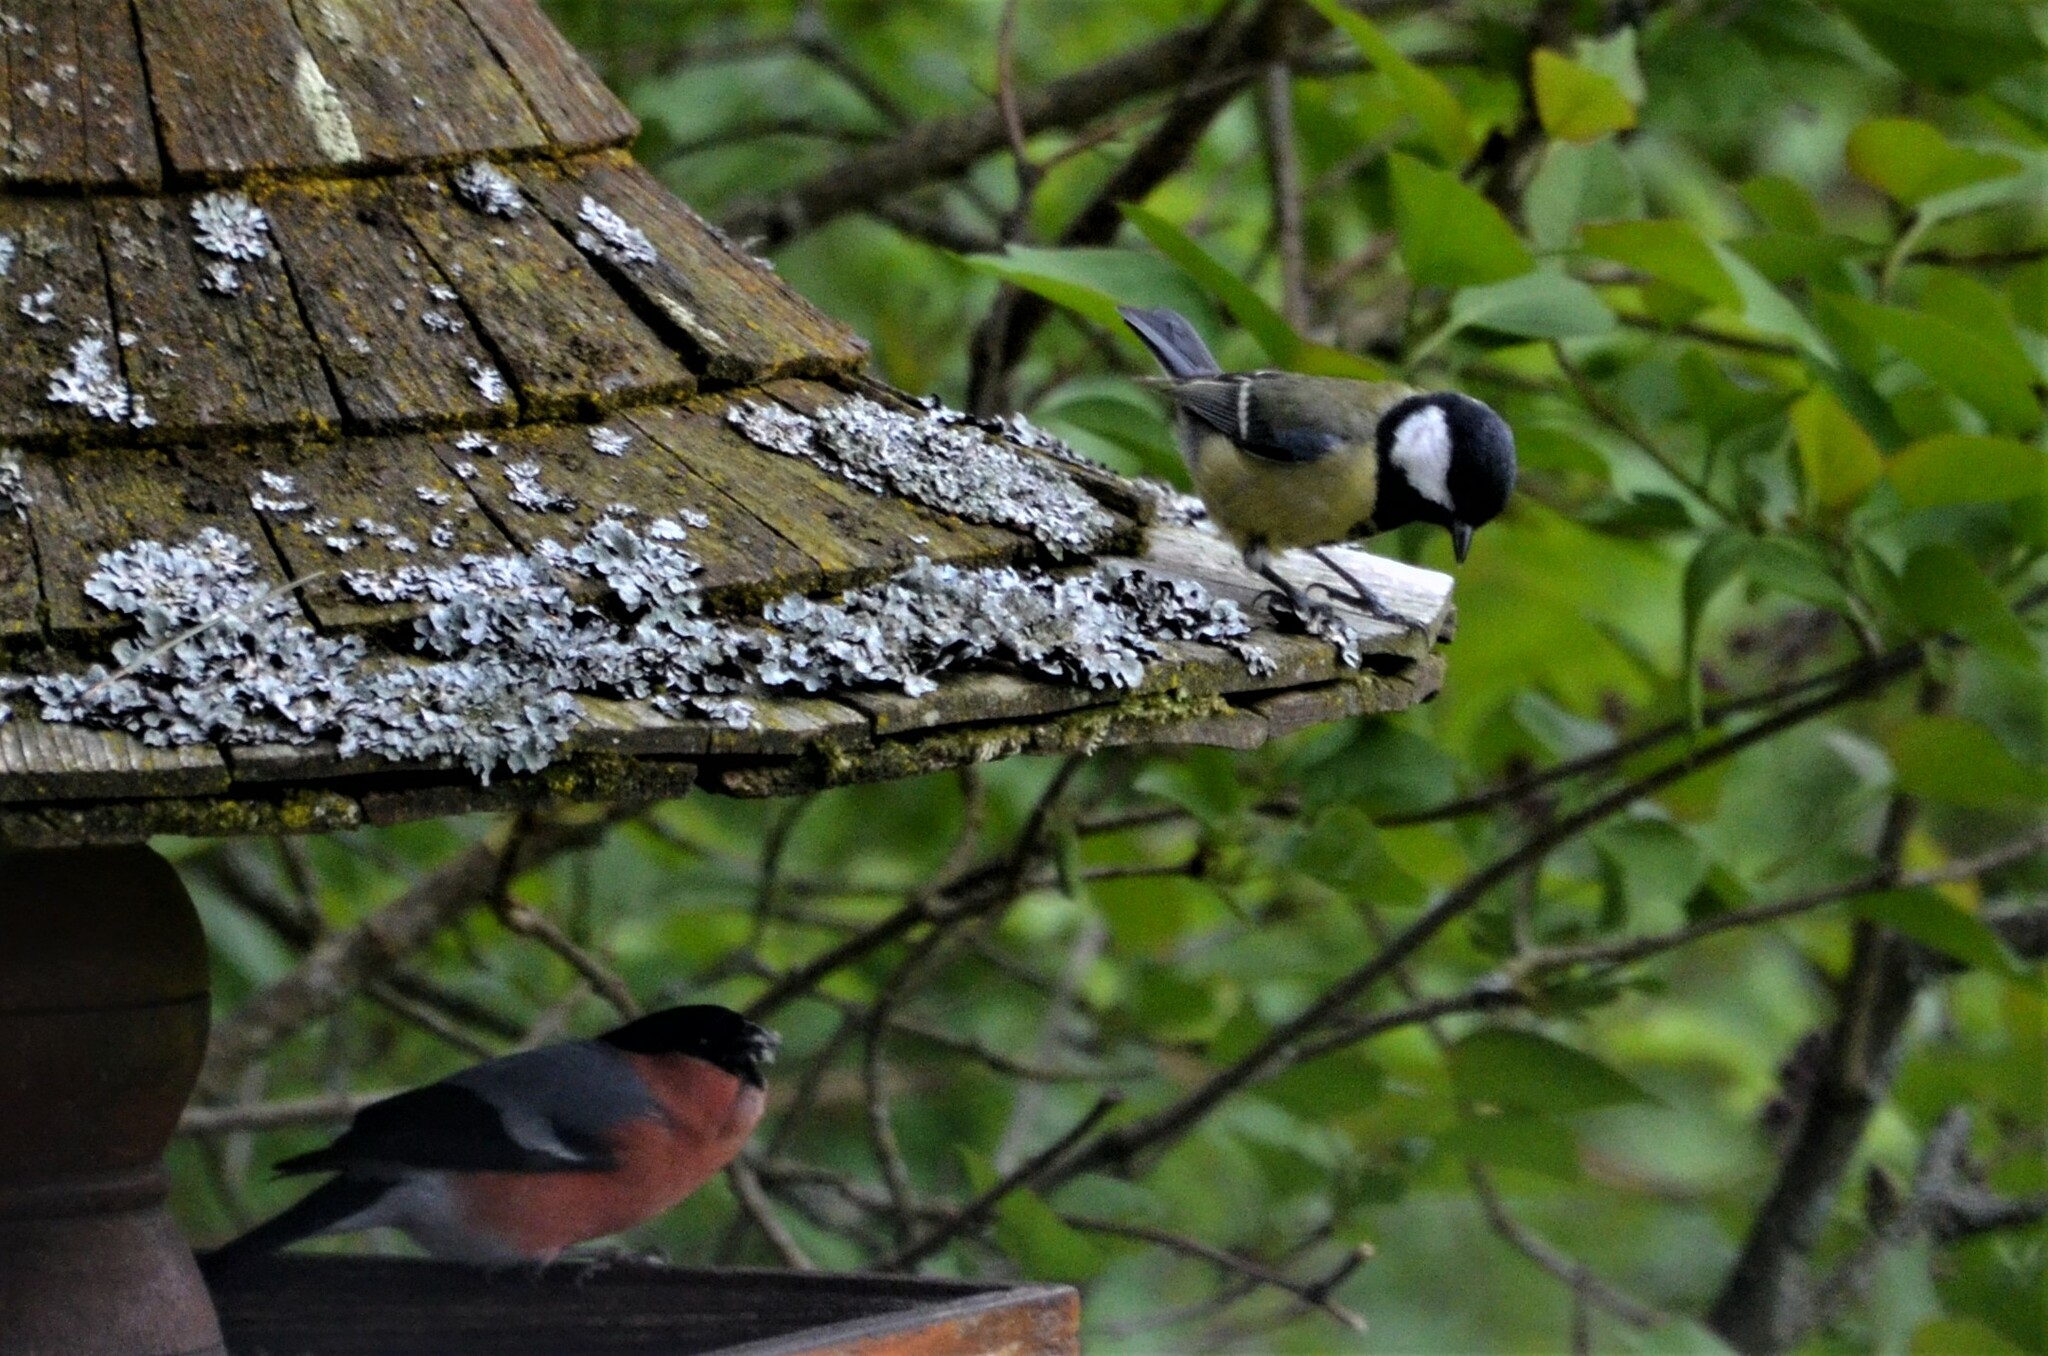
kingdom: Animalia
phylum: Chordata
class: Aves
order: Passeriformes
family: Paridae
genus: Parus
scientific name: Parus major
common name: Great tit
